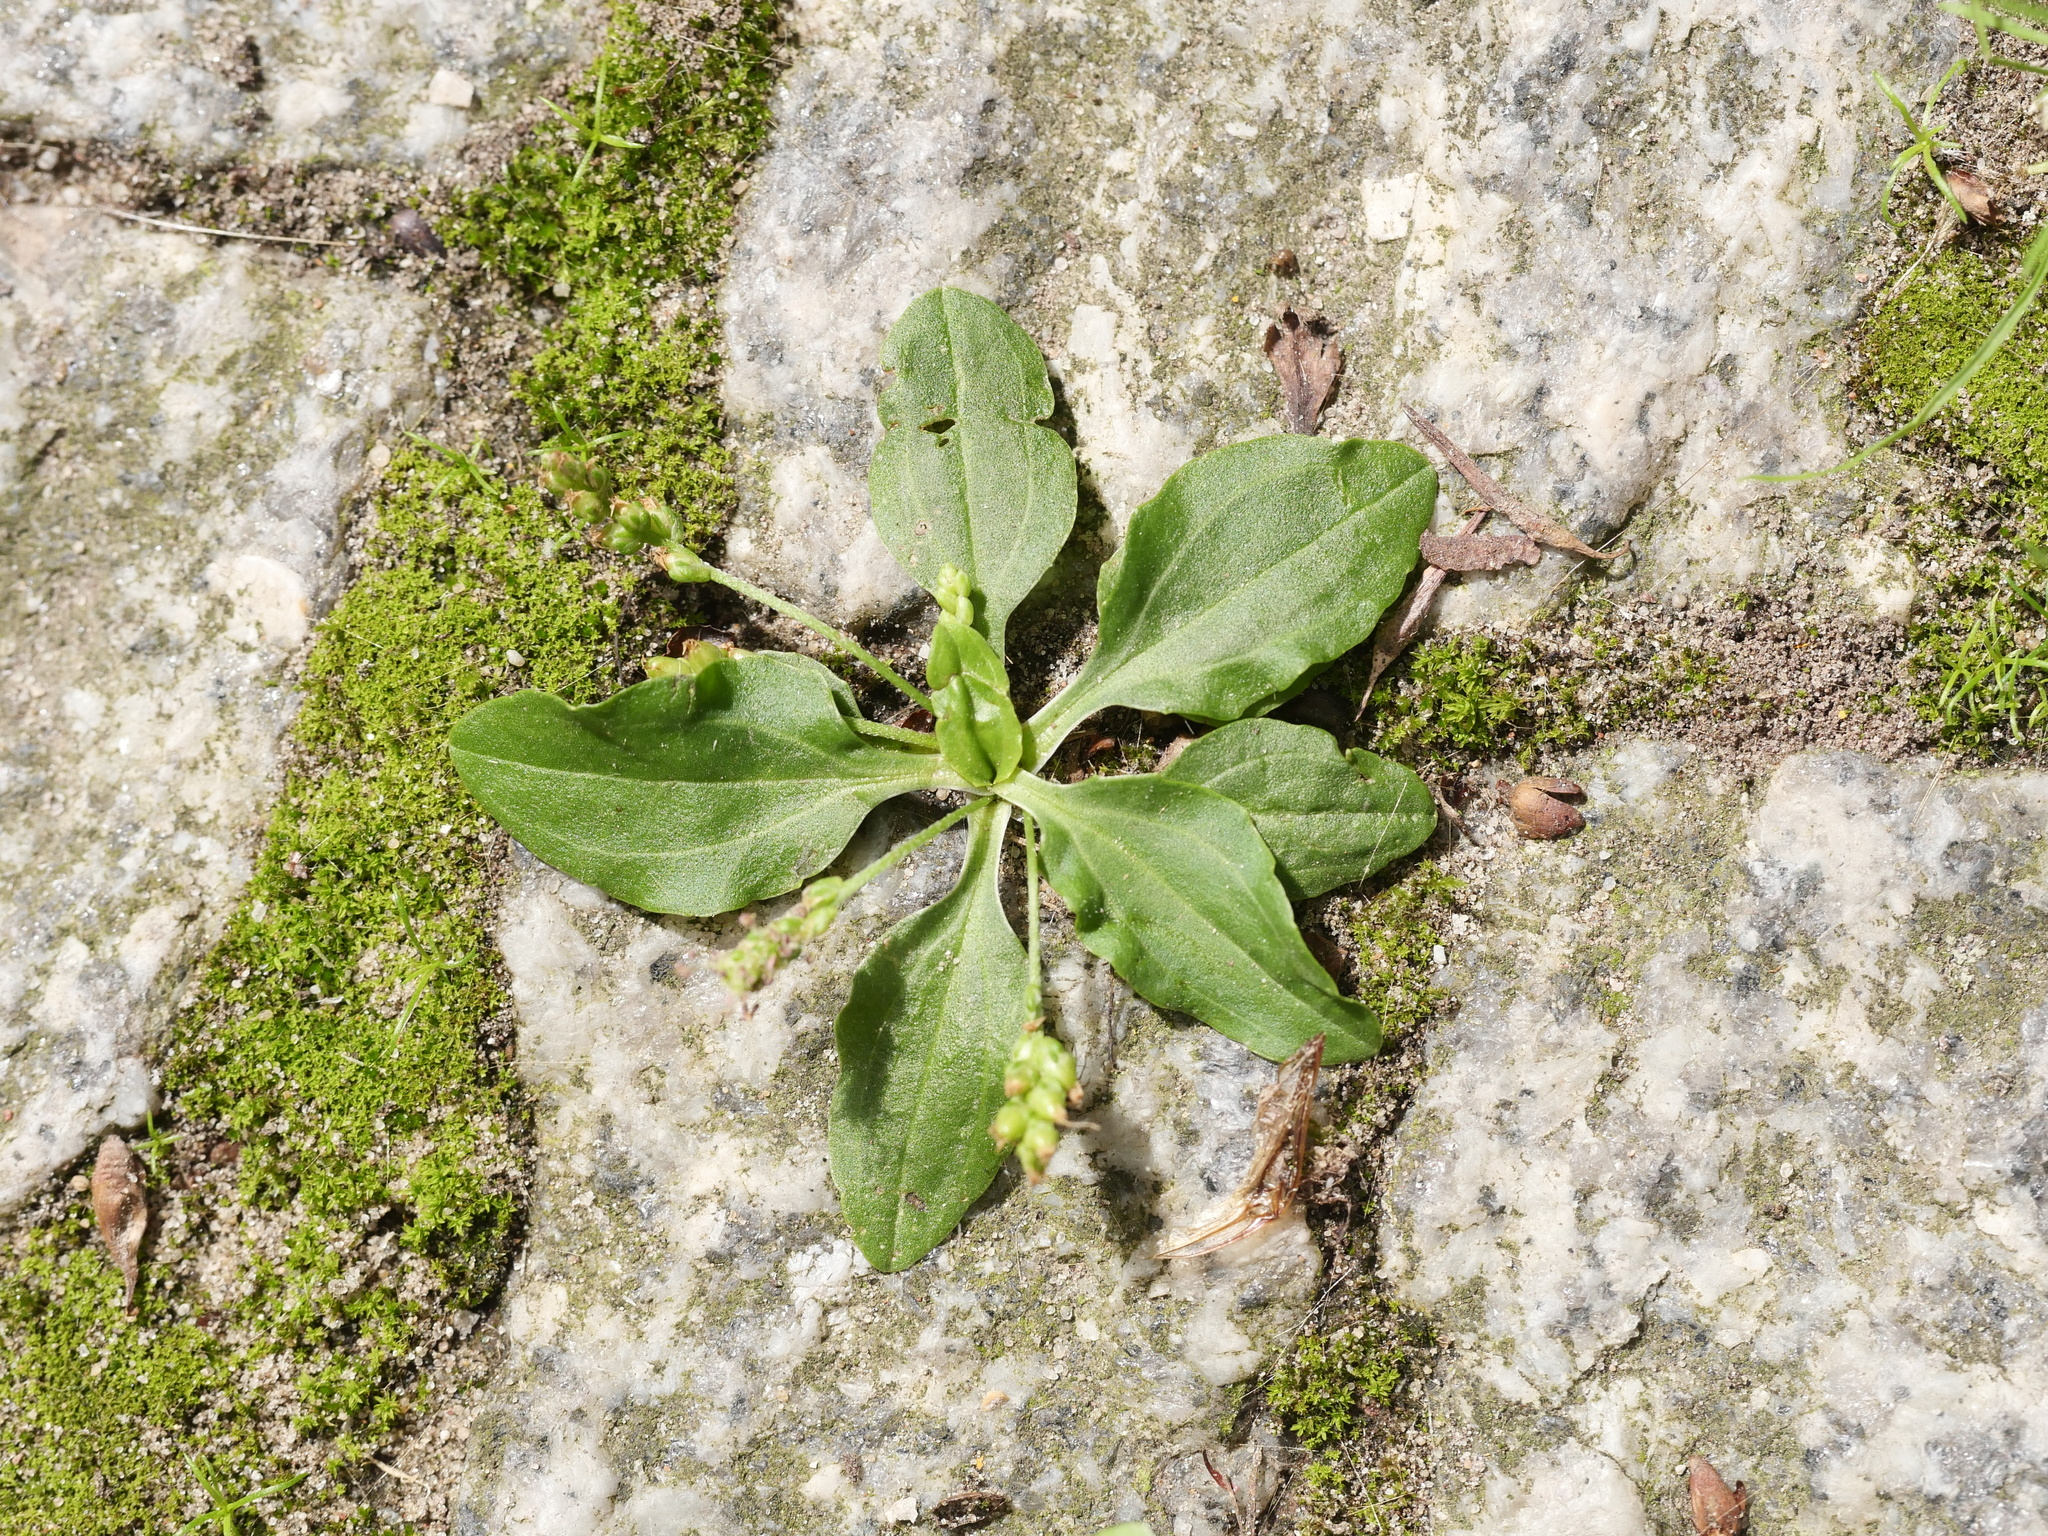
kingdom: Plantae
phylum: Tracheophyta
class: Magnoliopsida
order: Lamiales
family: Plantaginaceae
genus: Plantago
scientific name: Plantago major
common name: Common plantain
